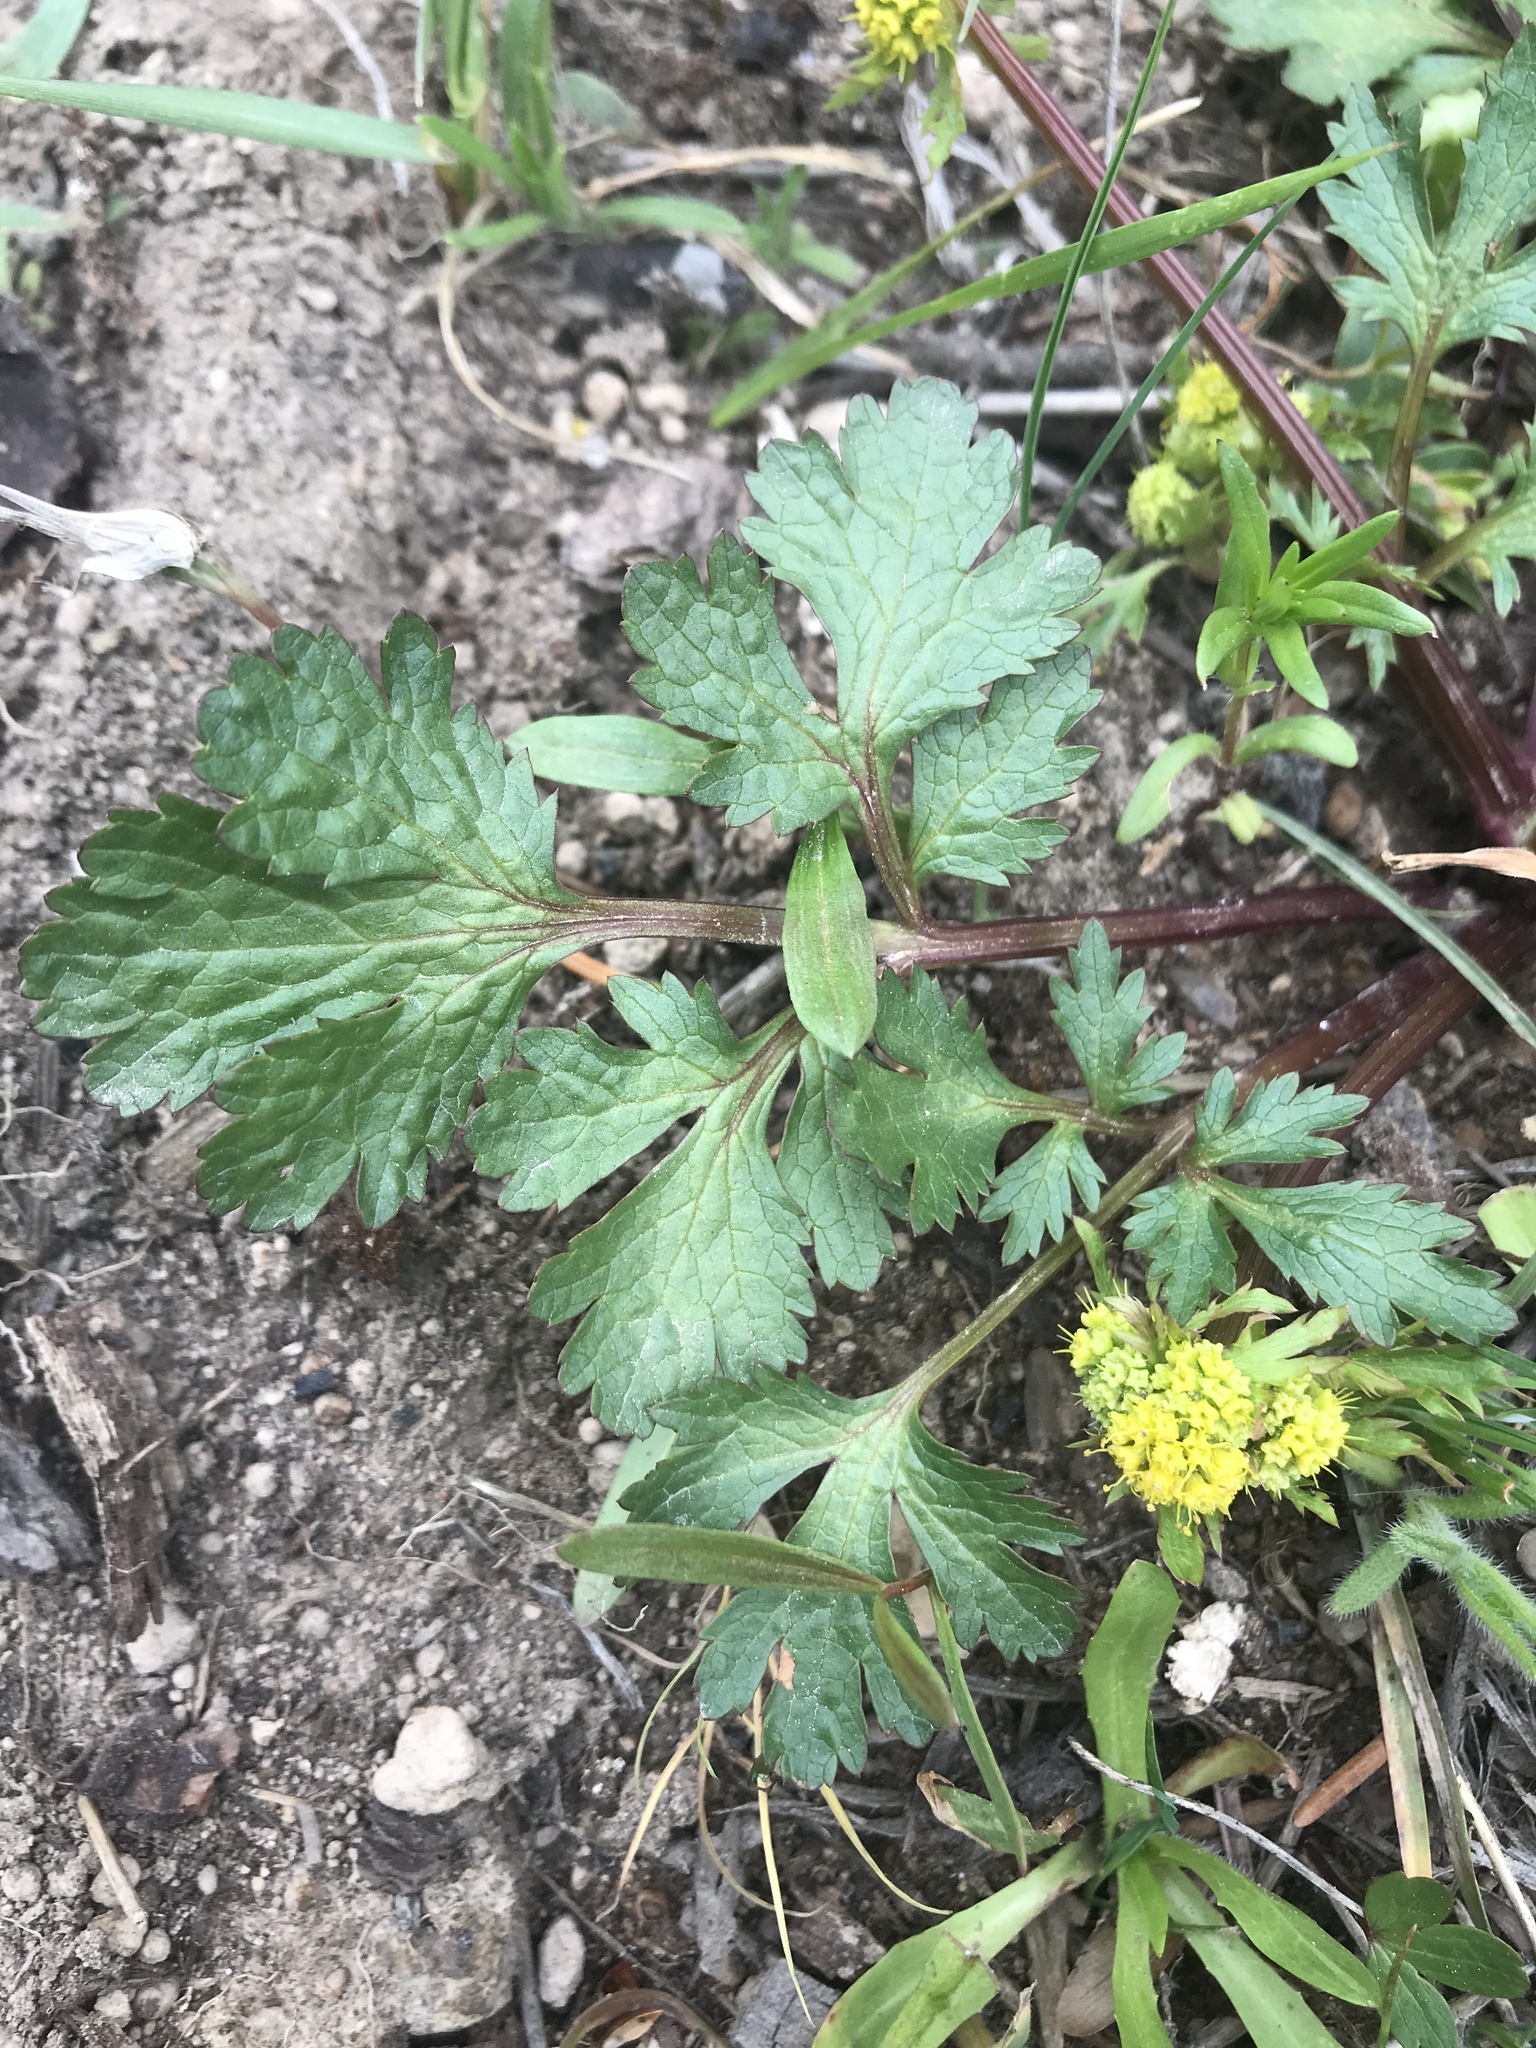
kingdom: Plantae
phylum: Tracheophyta
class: Magnoliopsida
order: Apiales
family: Apiaceae
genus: Sanicula
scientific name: Sanicula graveolens
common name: Sierra sanicle
